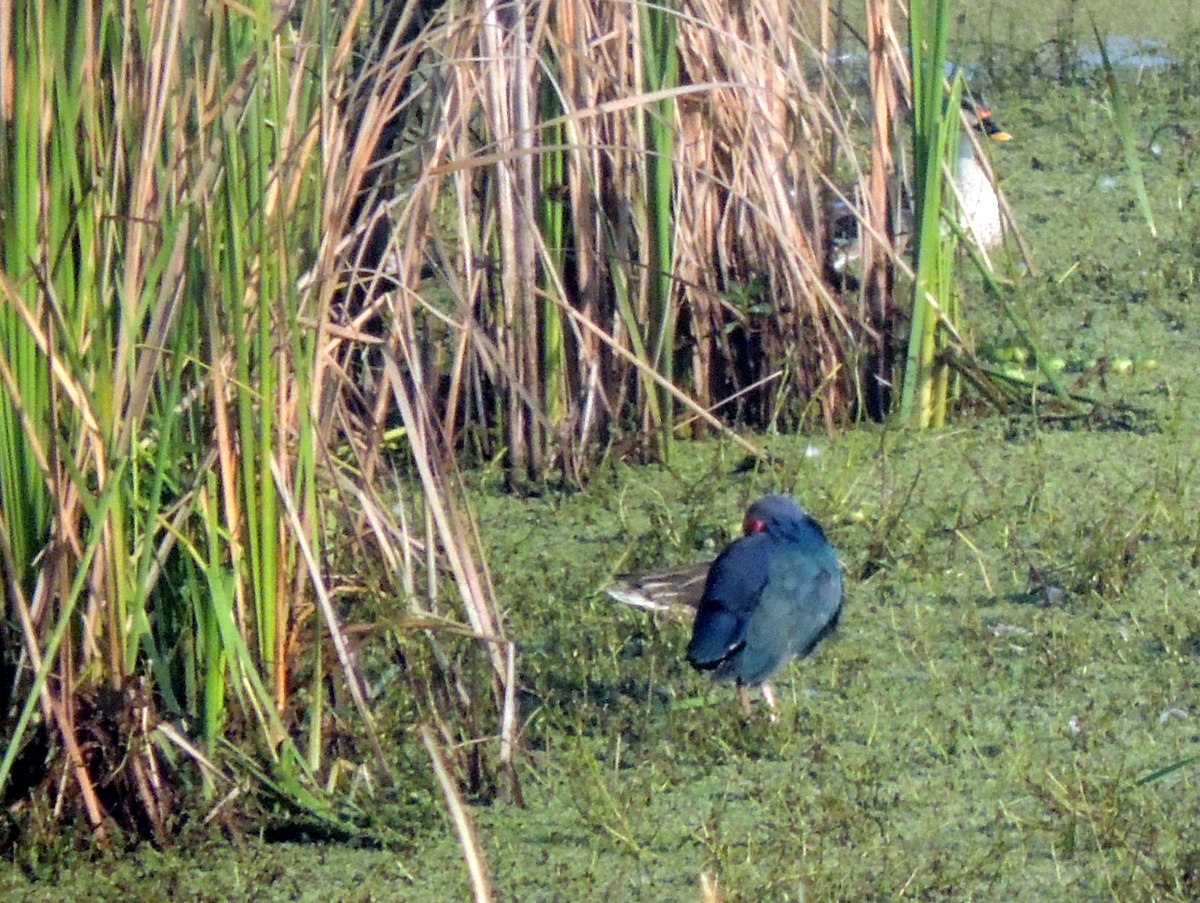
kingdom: Animalia
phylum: Chordata
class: Aves
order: Gruiformes
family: Rallidae
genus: Porphyrio
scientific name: Porphyrio porphyrio
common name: Purple swamphen
